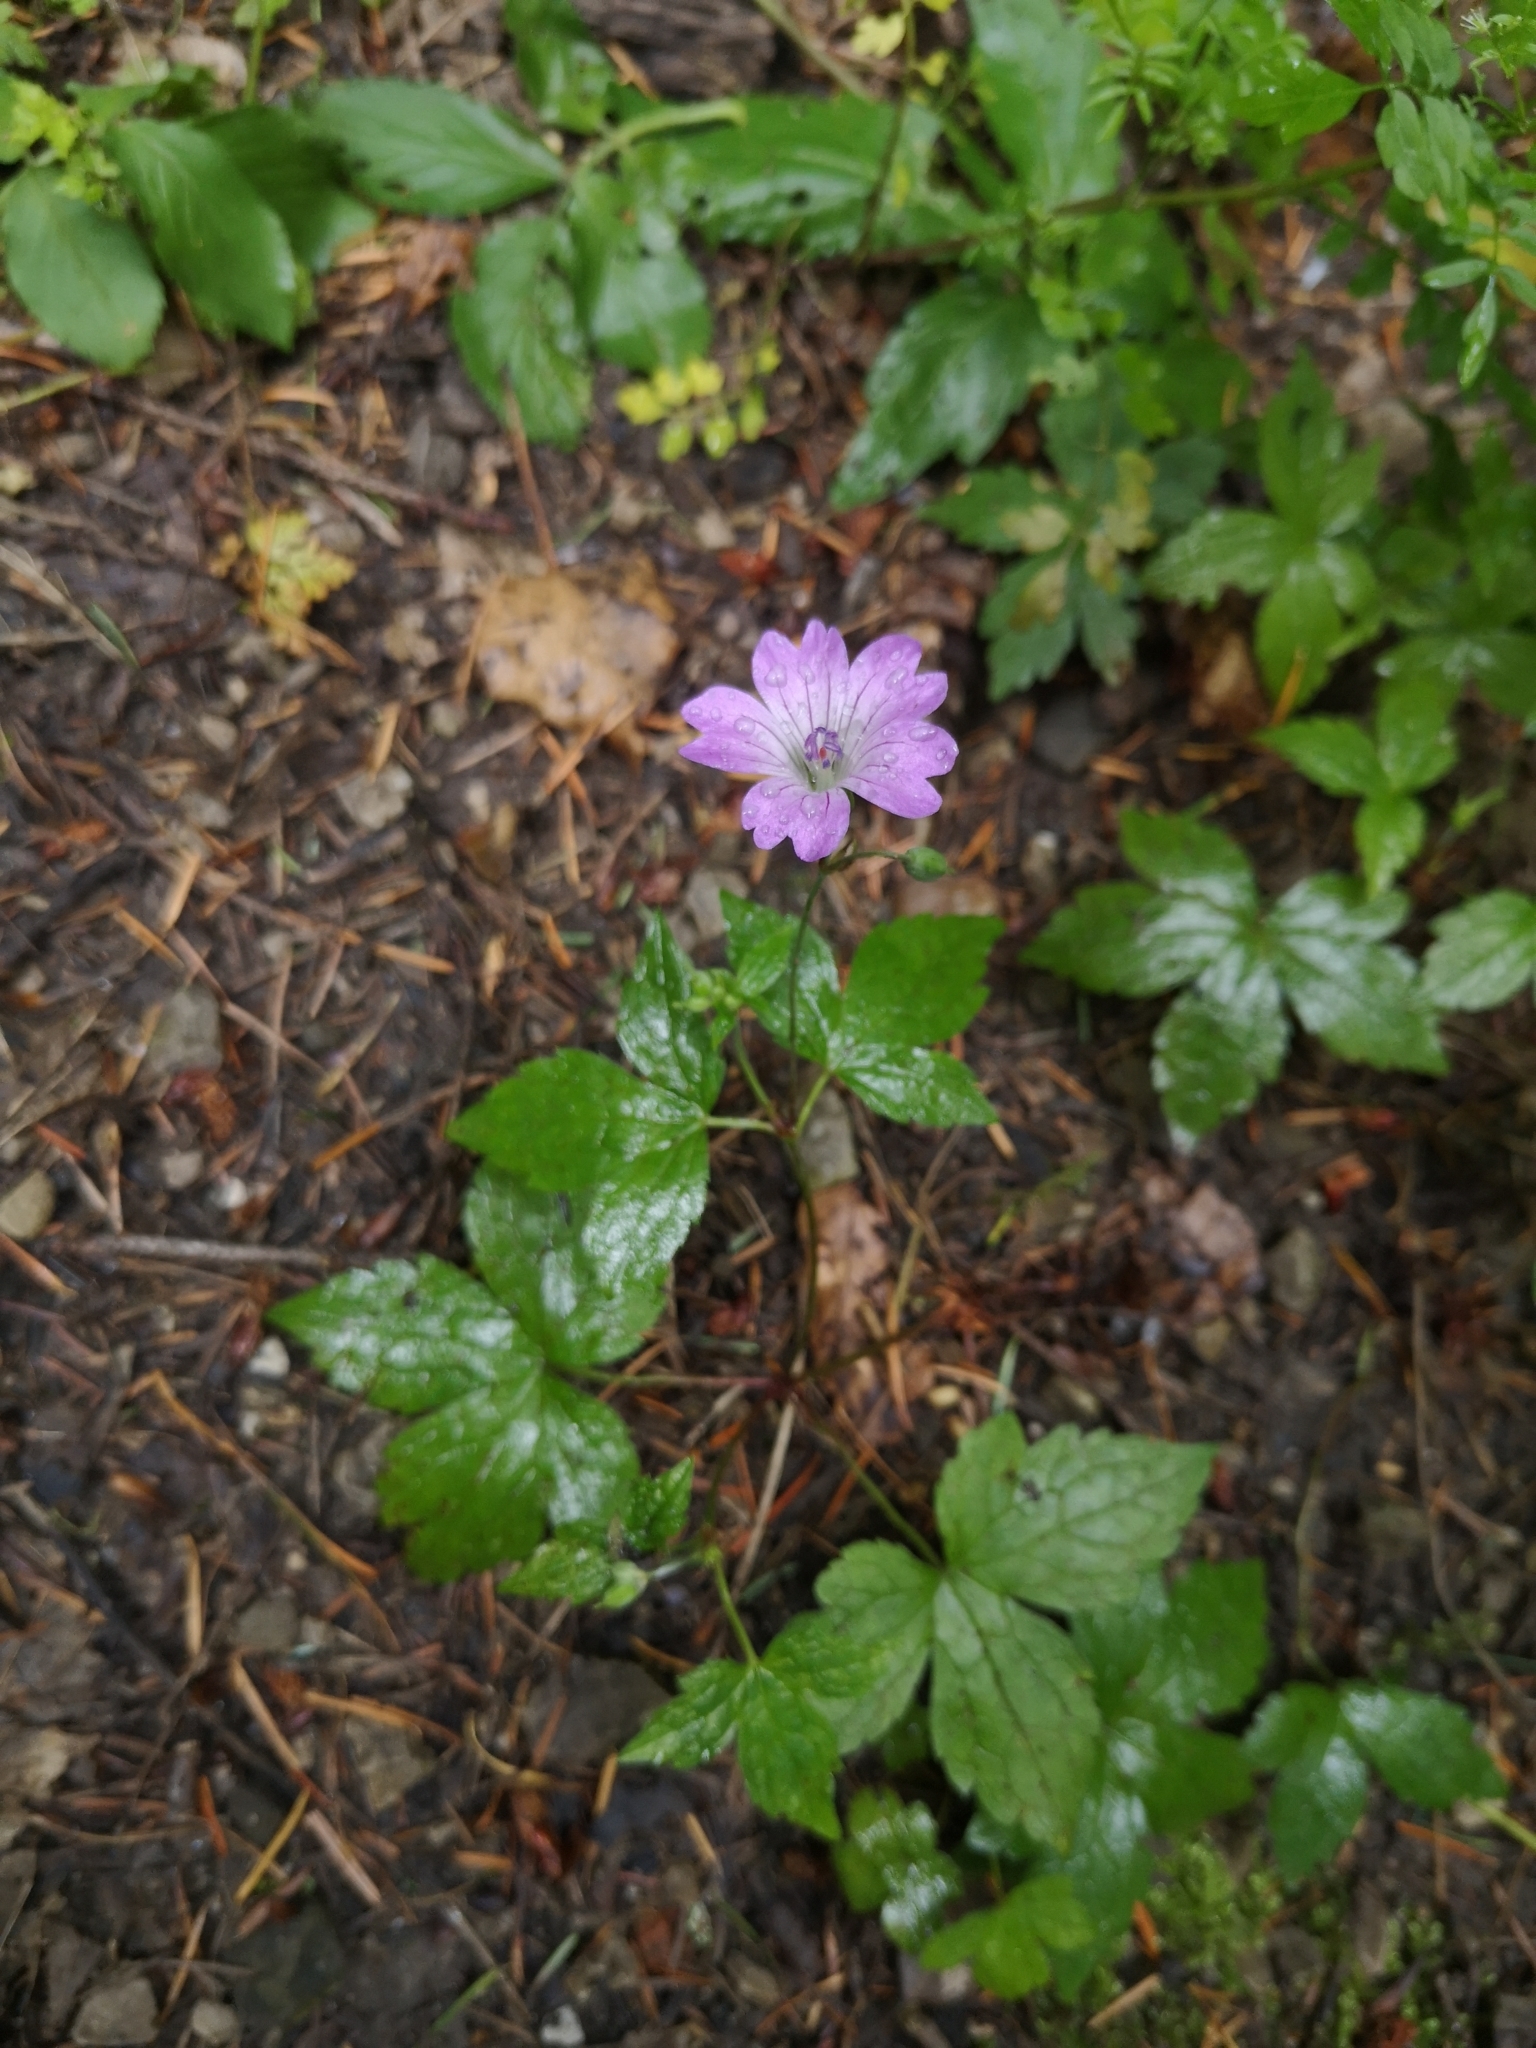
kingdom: Plantae
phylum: Tracheophyta
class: Magnoliopsida
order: Geraniales
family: Geraniaceae
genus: Geranium
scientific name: Geranium nodosum
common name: Knotted crane's-bill
